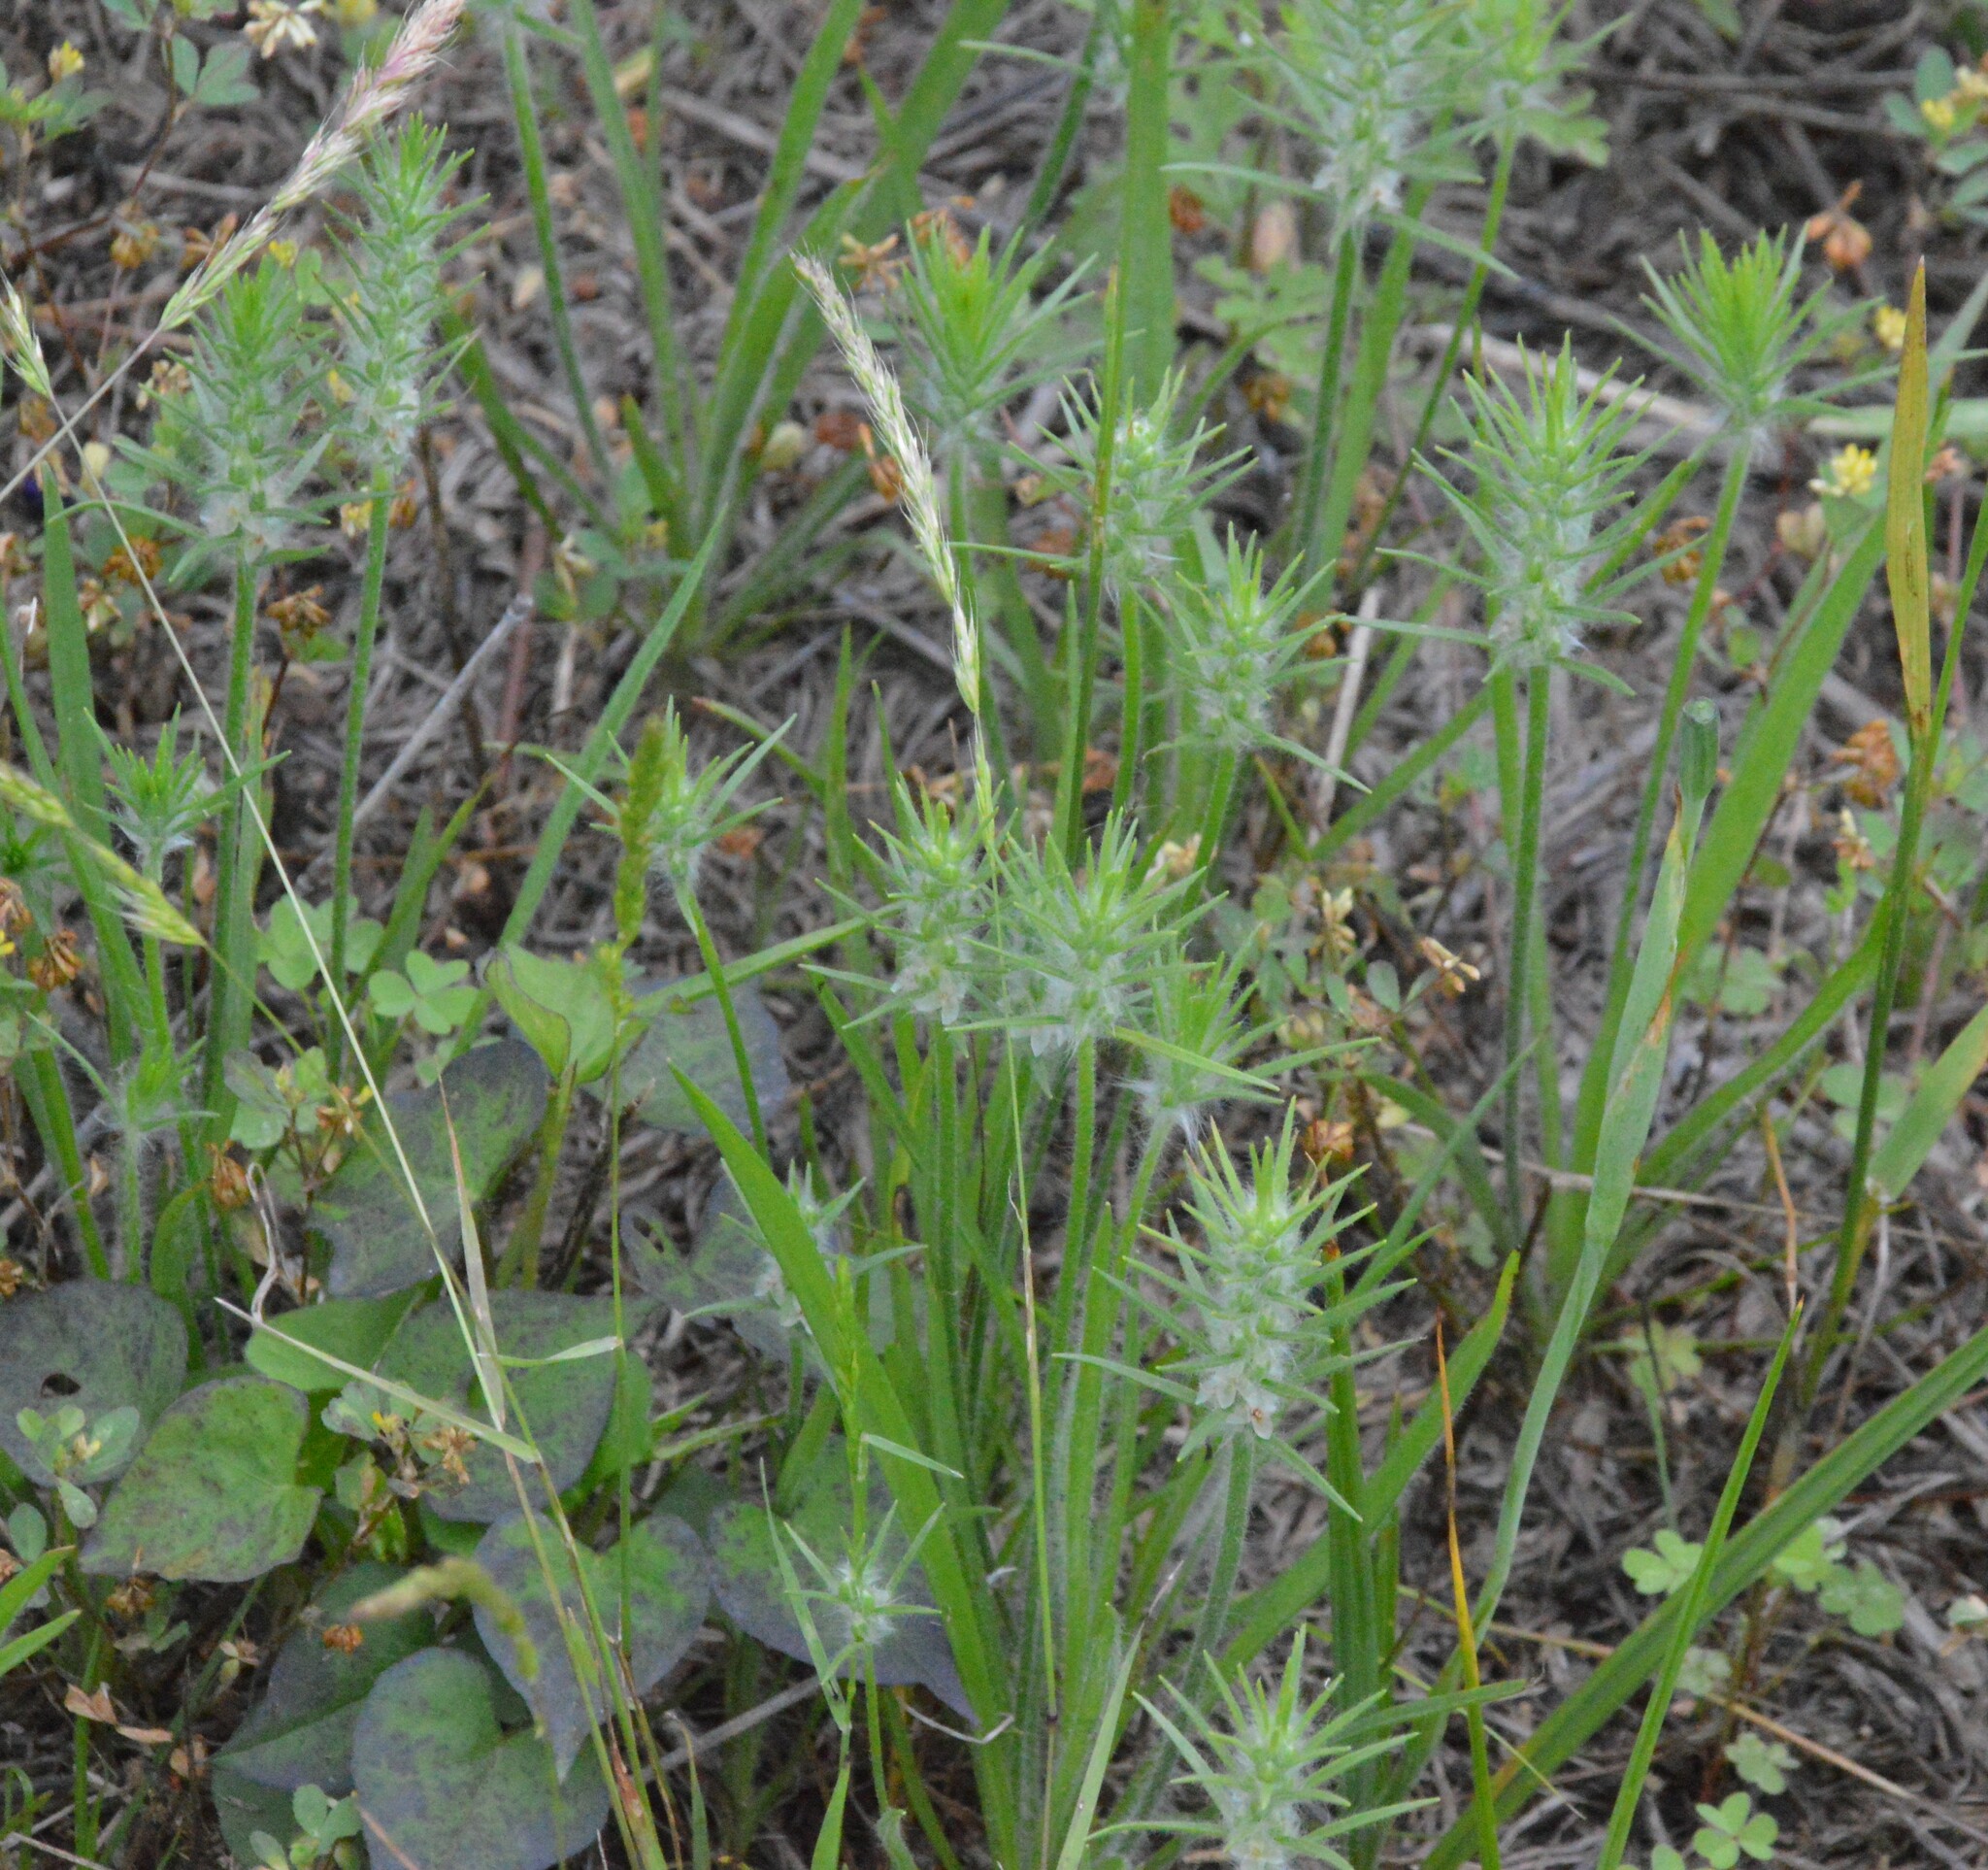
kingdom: Plantae
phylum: Tracheophyta
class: Magnoliopsida
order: Lamiales
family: Plantaginaceae
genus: Plantago
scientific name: Plantago aristata
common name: Bracted plantain
